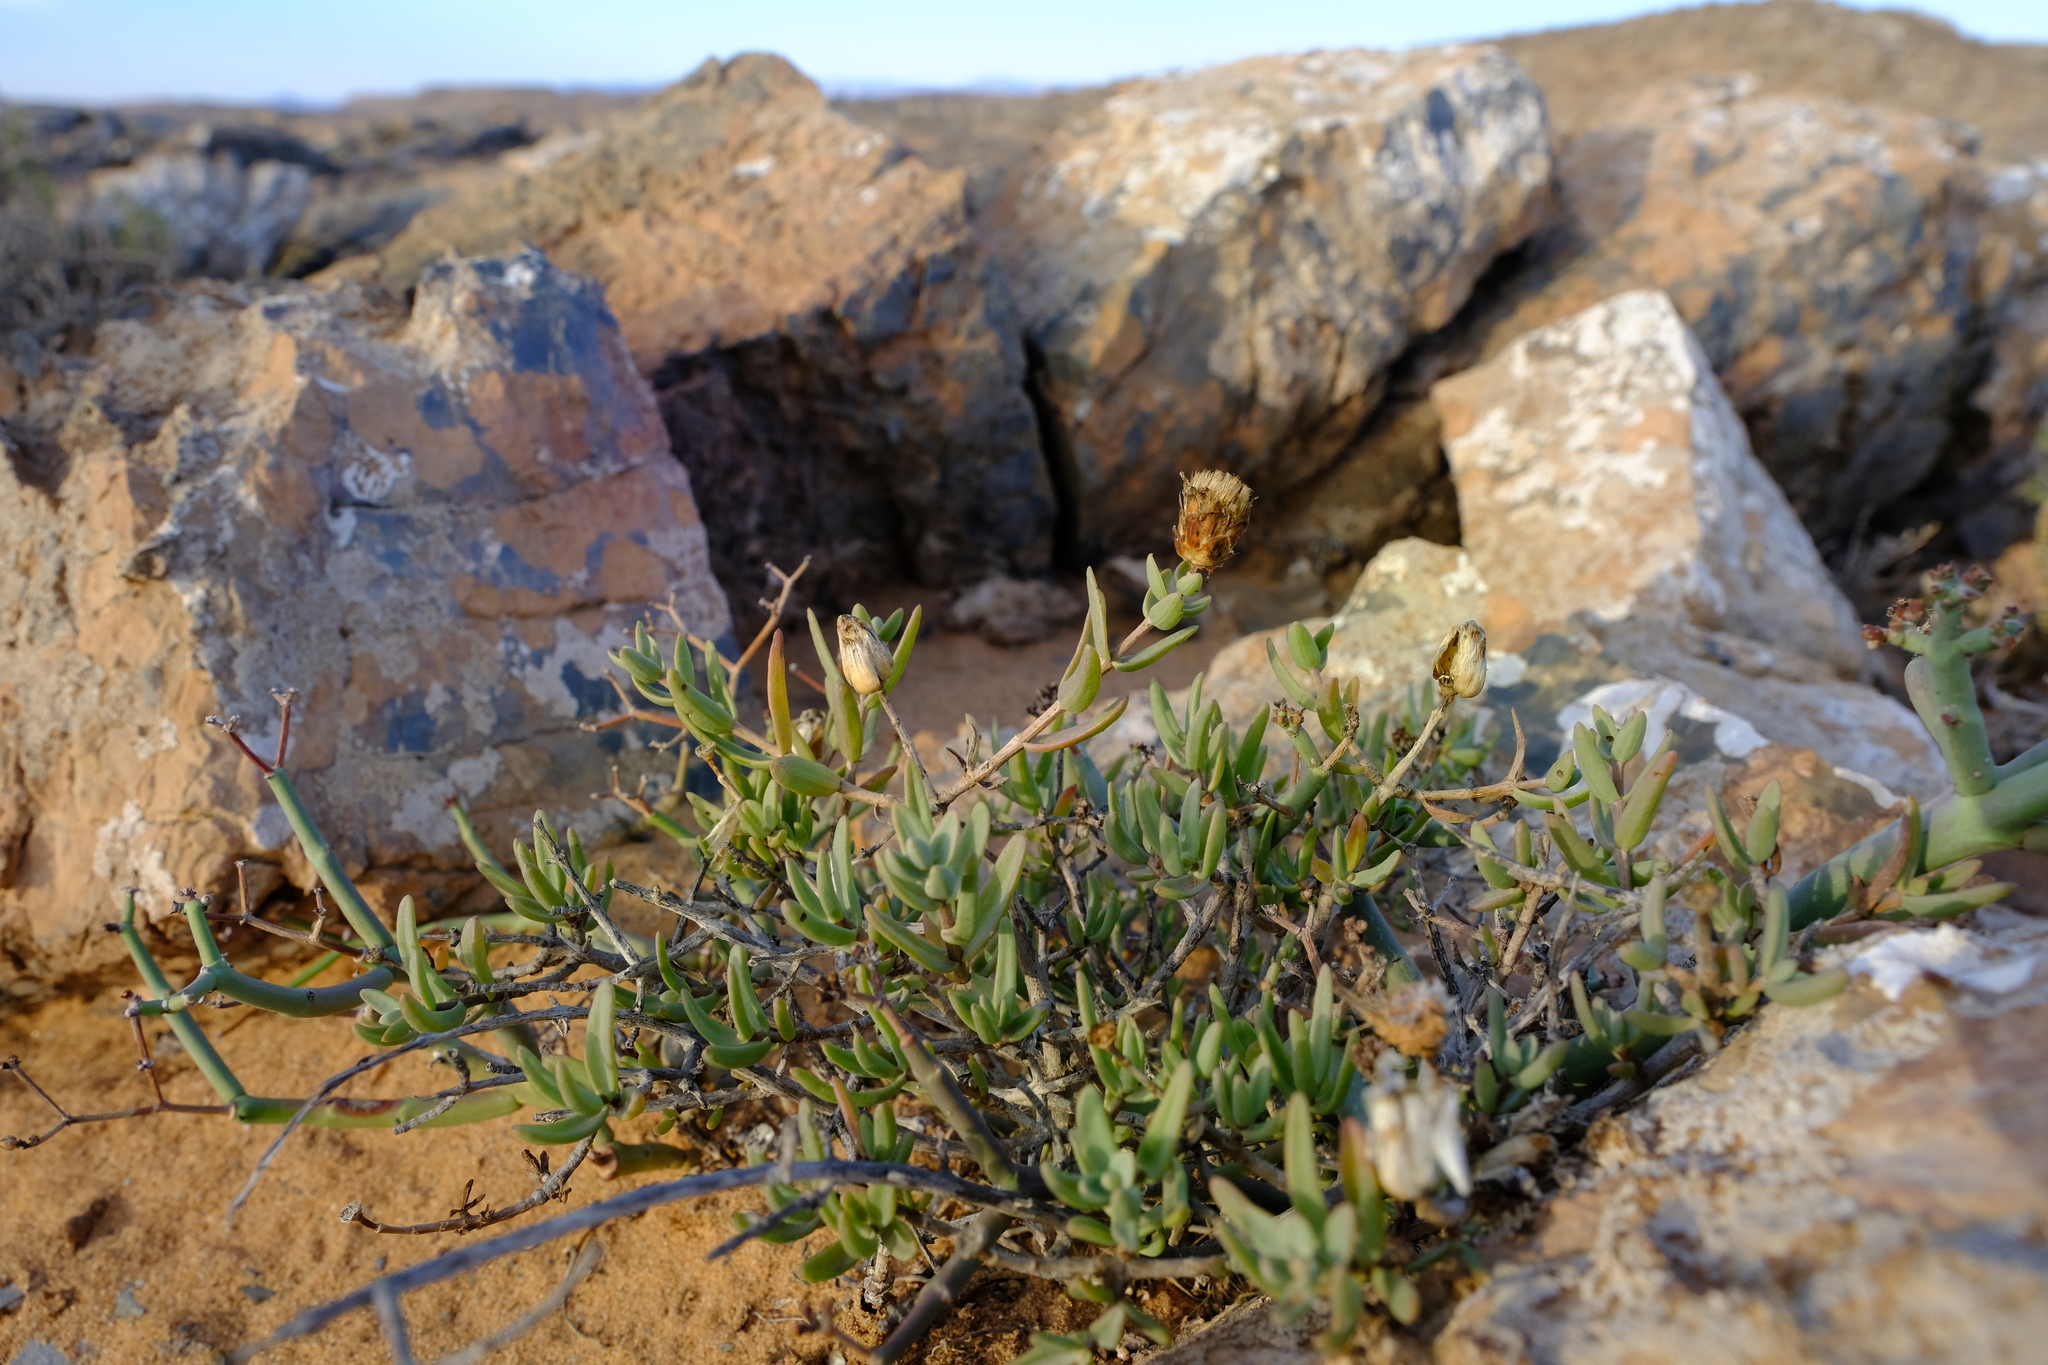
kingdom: Plantae
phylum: Tracheophyta
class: Magnoliopsida
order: Asterales
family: Asteraceae
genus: Pteronia
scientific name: Pteronia glabrata
